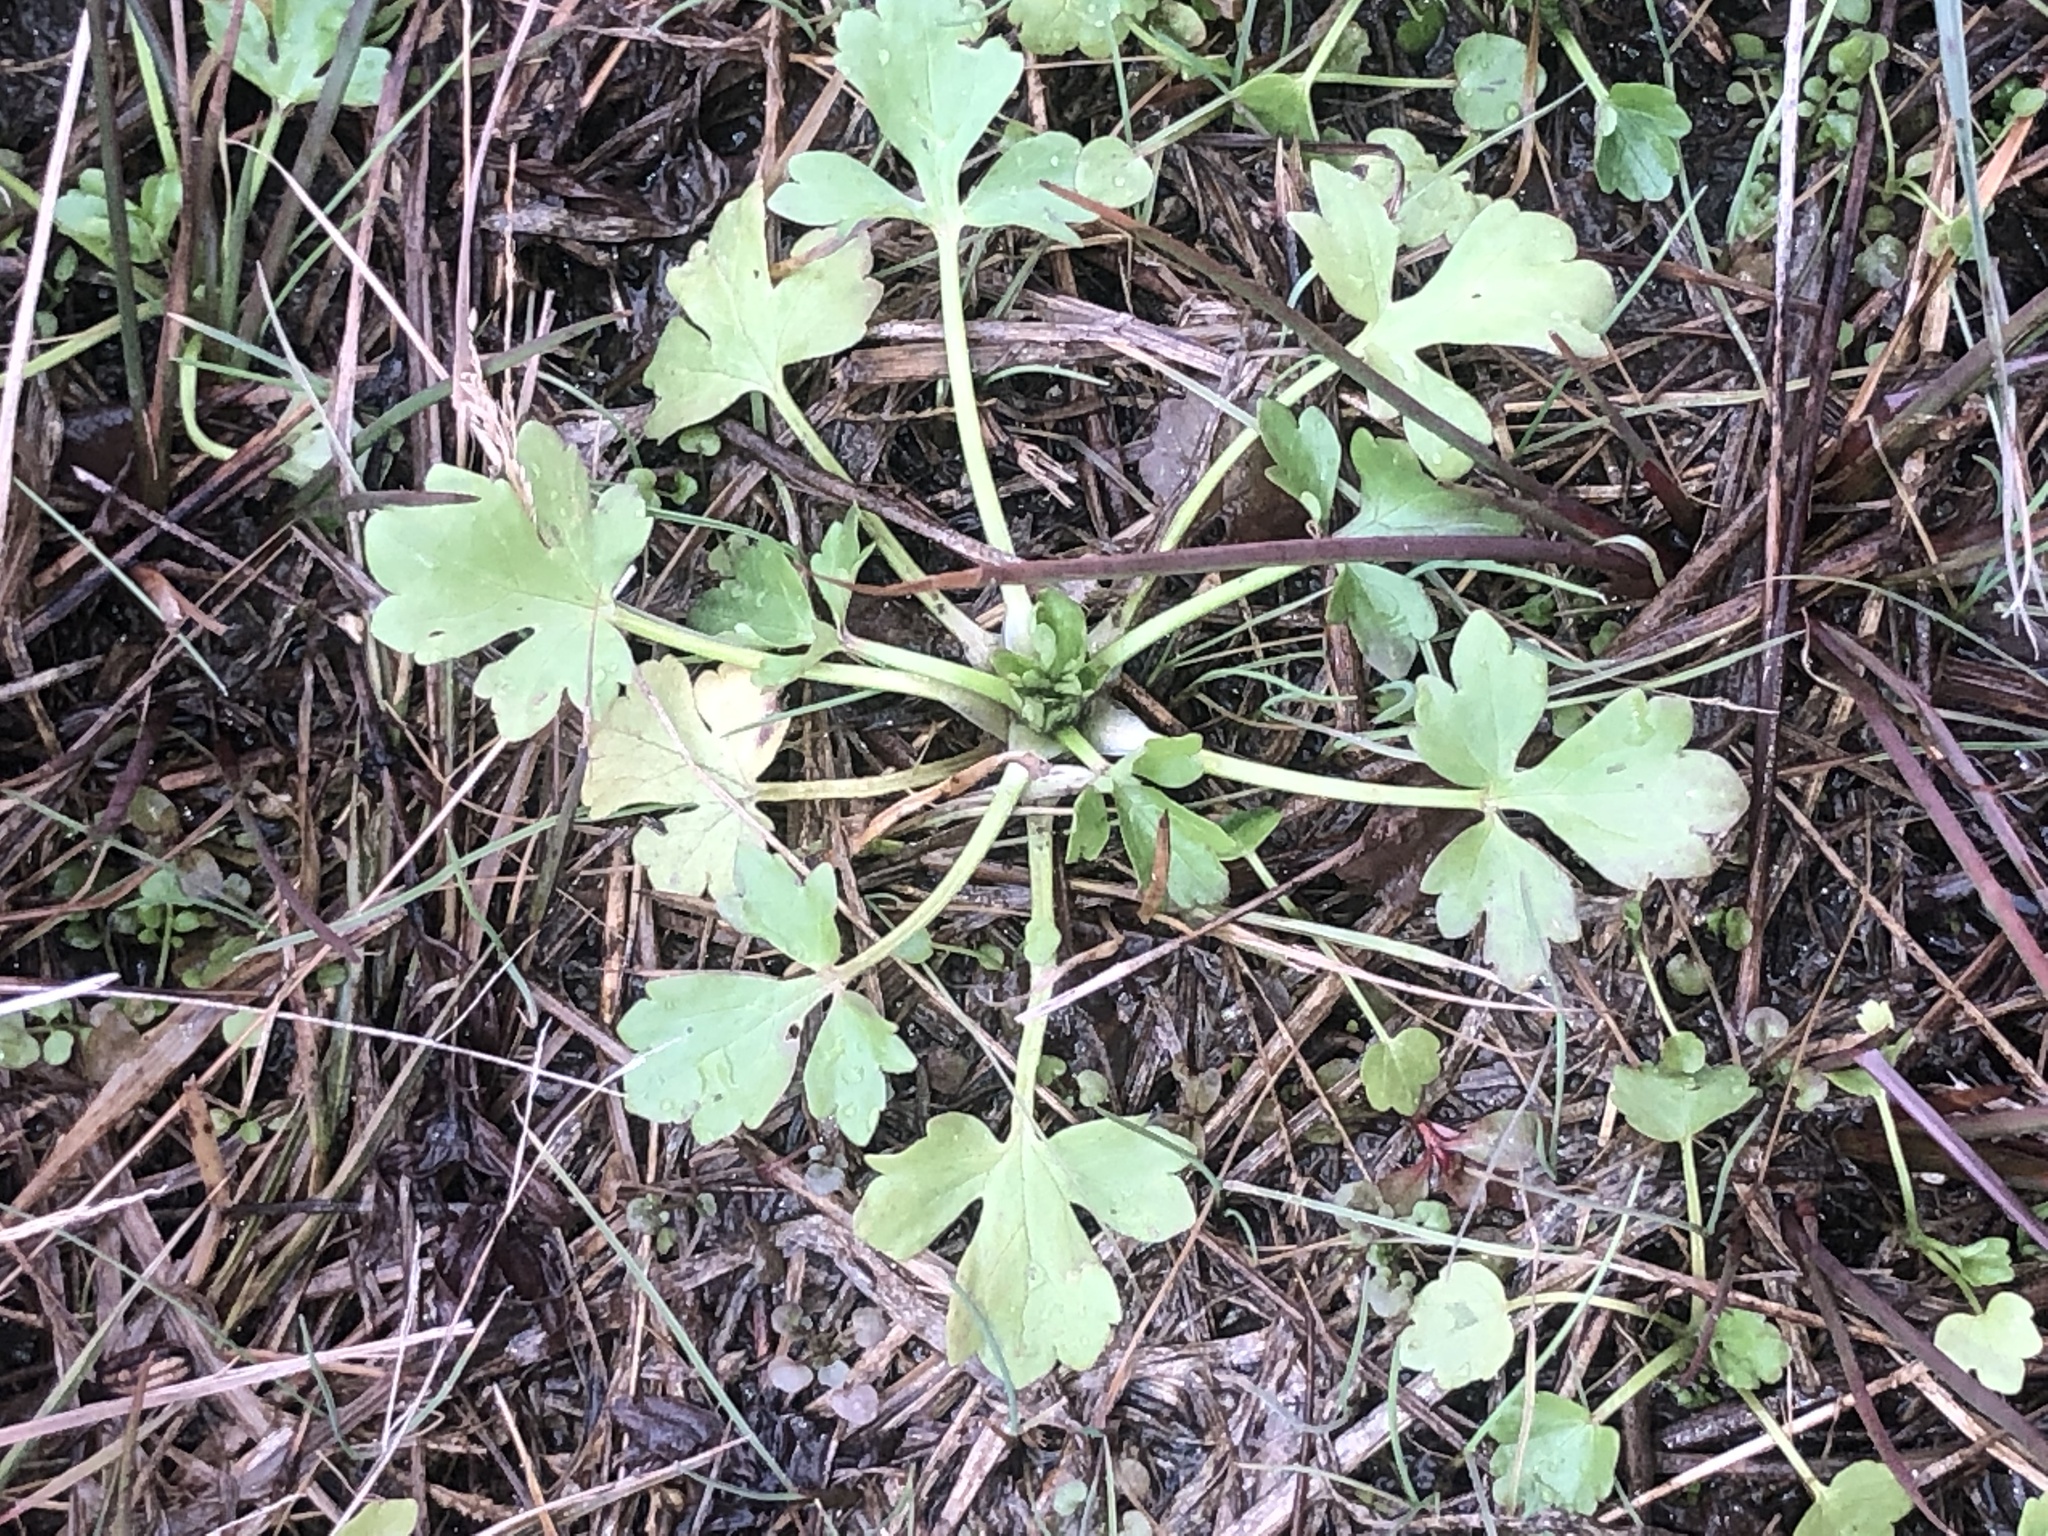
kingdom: Plantae
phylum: Tracheophyta
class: Magnoliopsida
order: Ranunculales
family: Ranunculaceae
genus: Ranunculus
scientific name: Ranunculus sceleratus
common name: Celery-leaved buttercup
